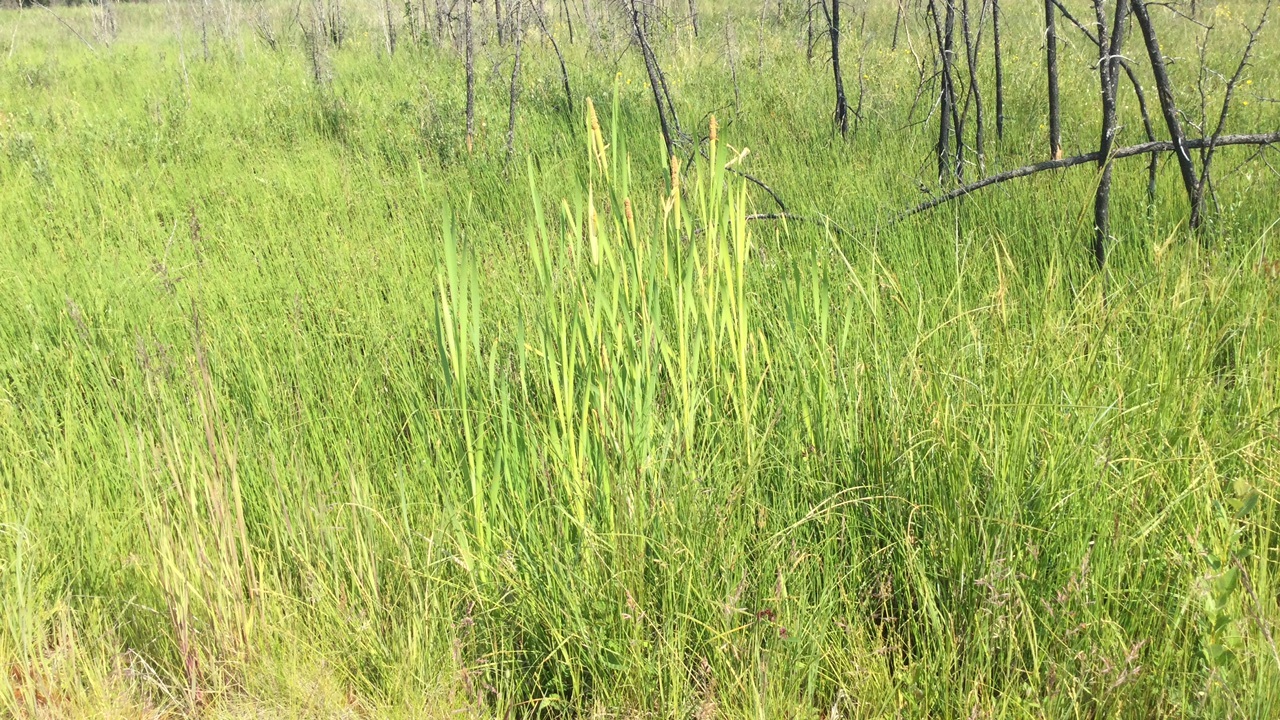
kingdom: Plantae
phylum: Tracheophyta
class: Liliopsida
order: Poales
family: Typhaceae
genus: Typha
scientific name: Typha latifolia
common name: Broadleaf cattail
